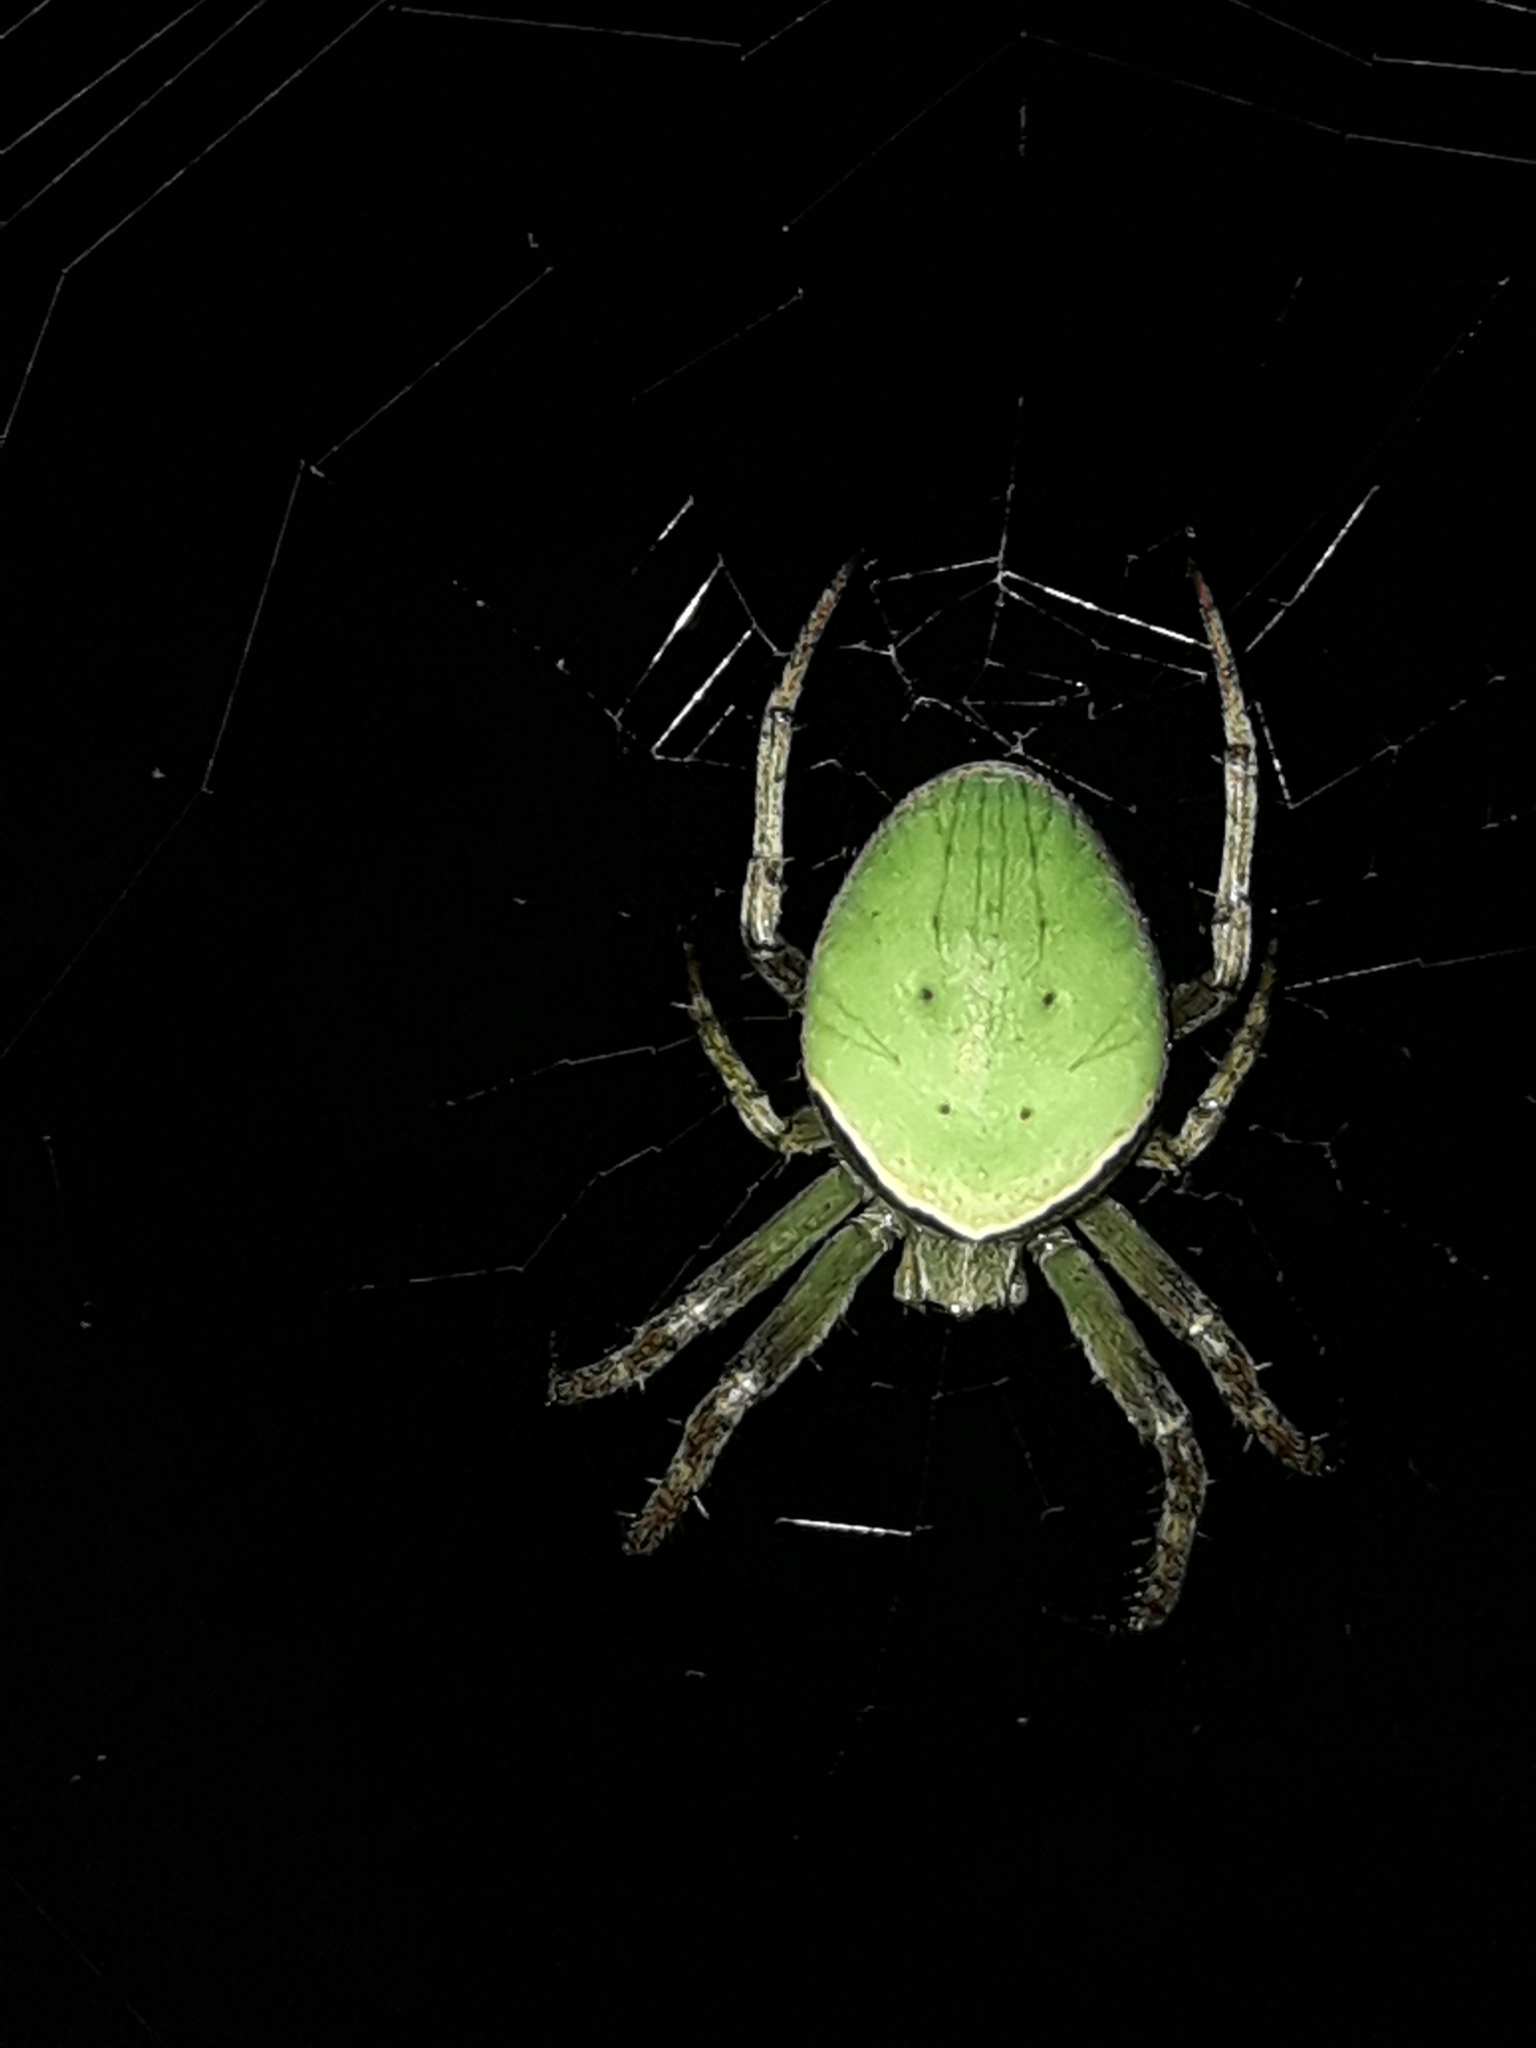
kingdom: Animalia
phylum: Arthropoda
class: Arachnida
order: Araneae
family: Araneidae
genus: Colaranea
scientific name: Colaranea viriditas
